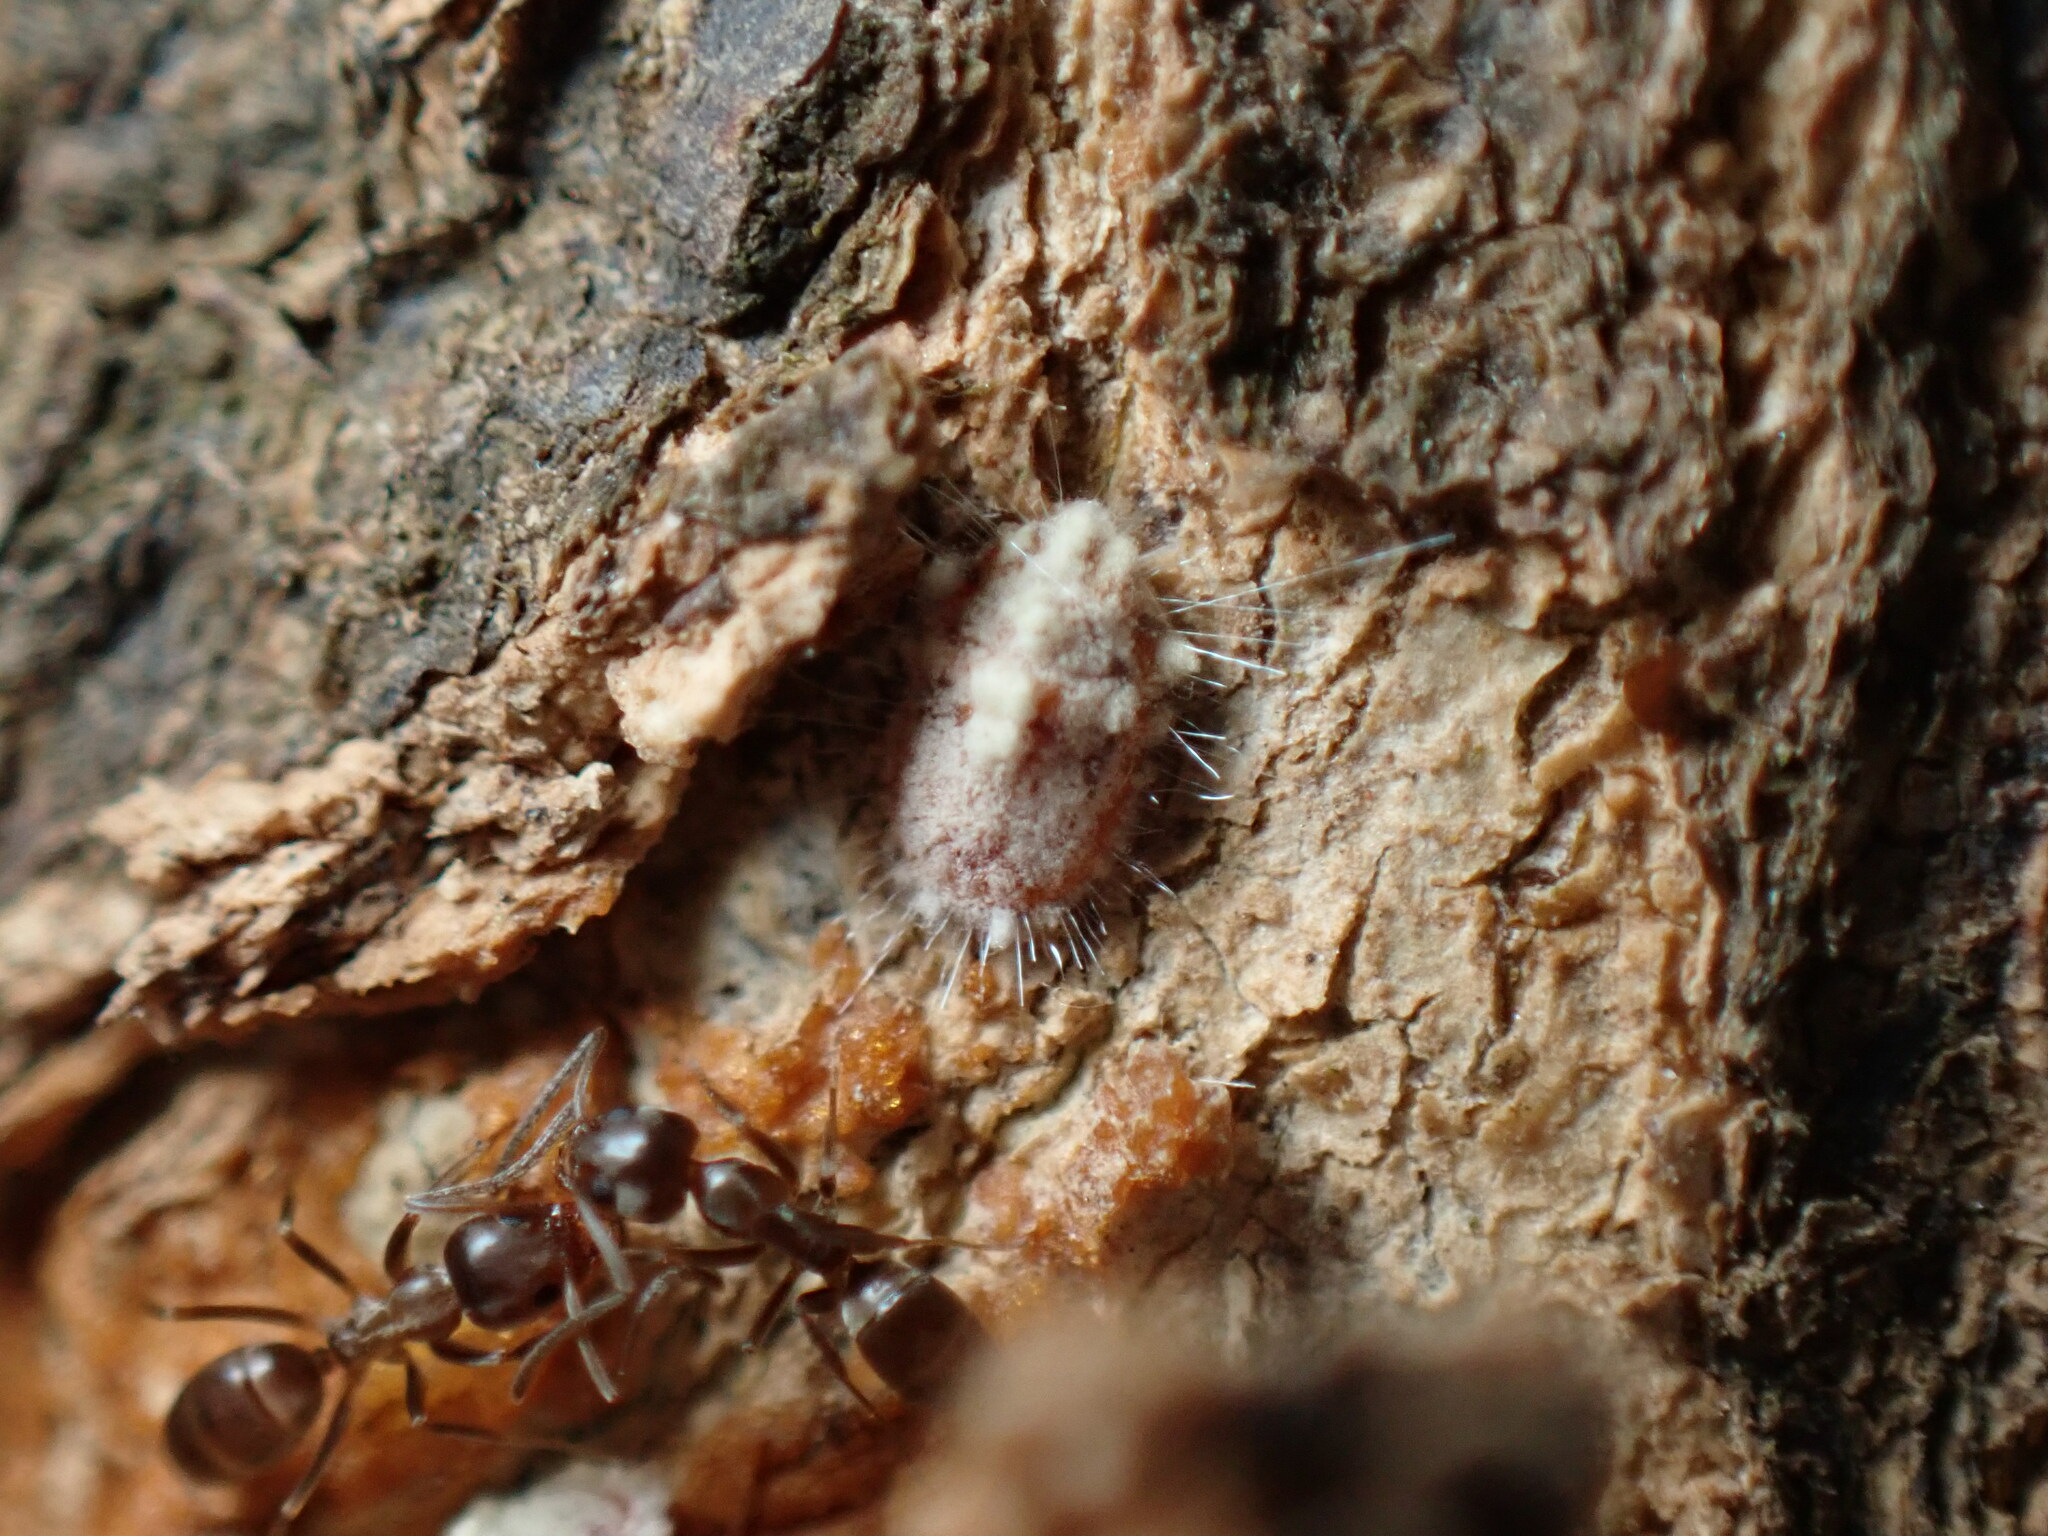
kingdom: Animalia
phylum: Arthropoda
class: Insecta
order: Hemiptera
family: Margarodidae
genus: Icerya
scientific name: Icerya purchasi
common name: Cottony cushion scale
